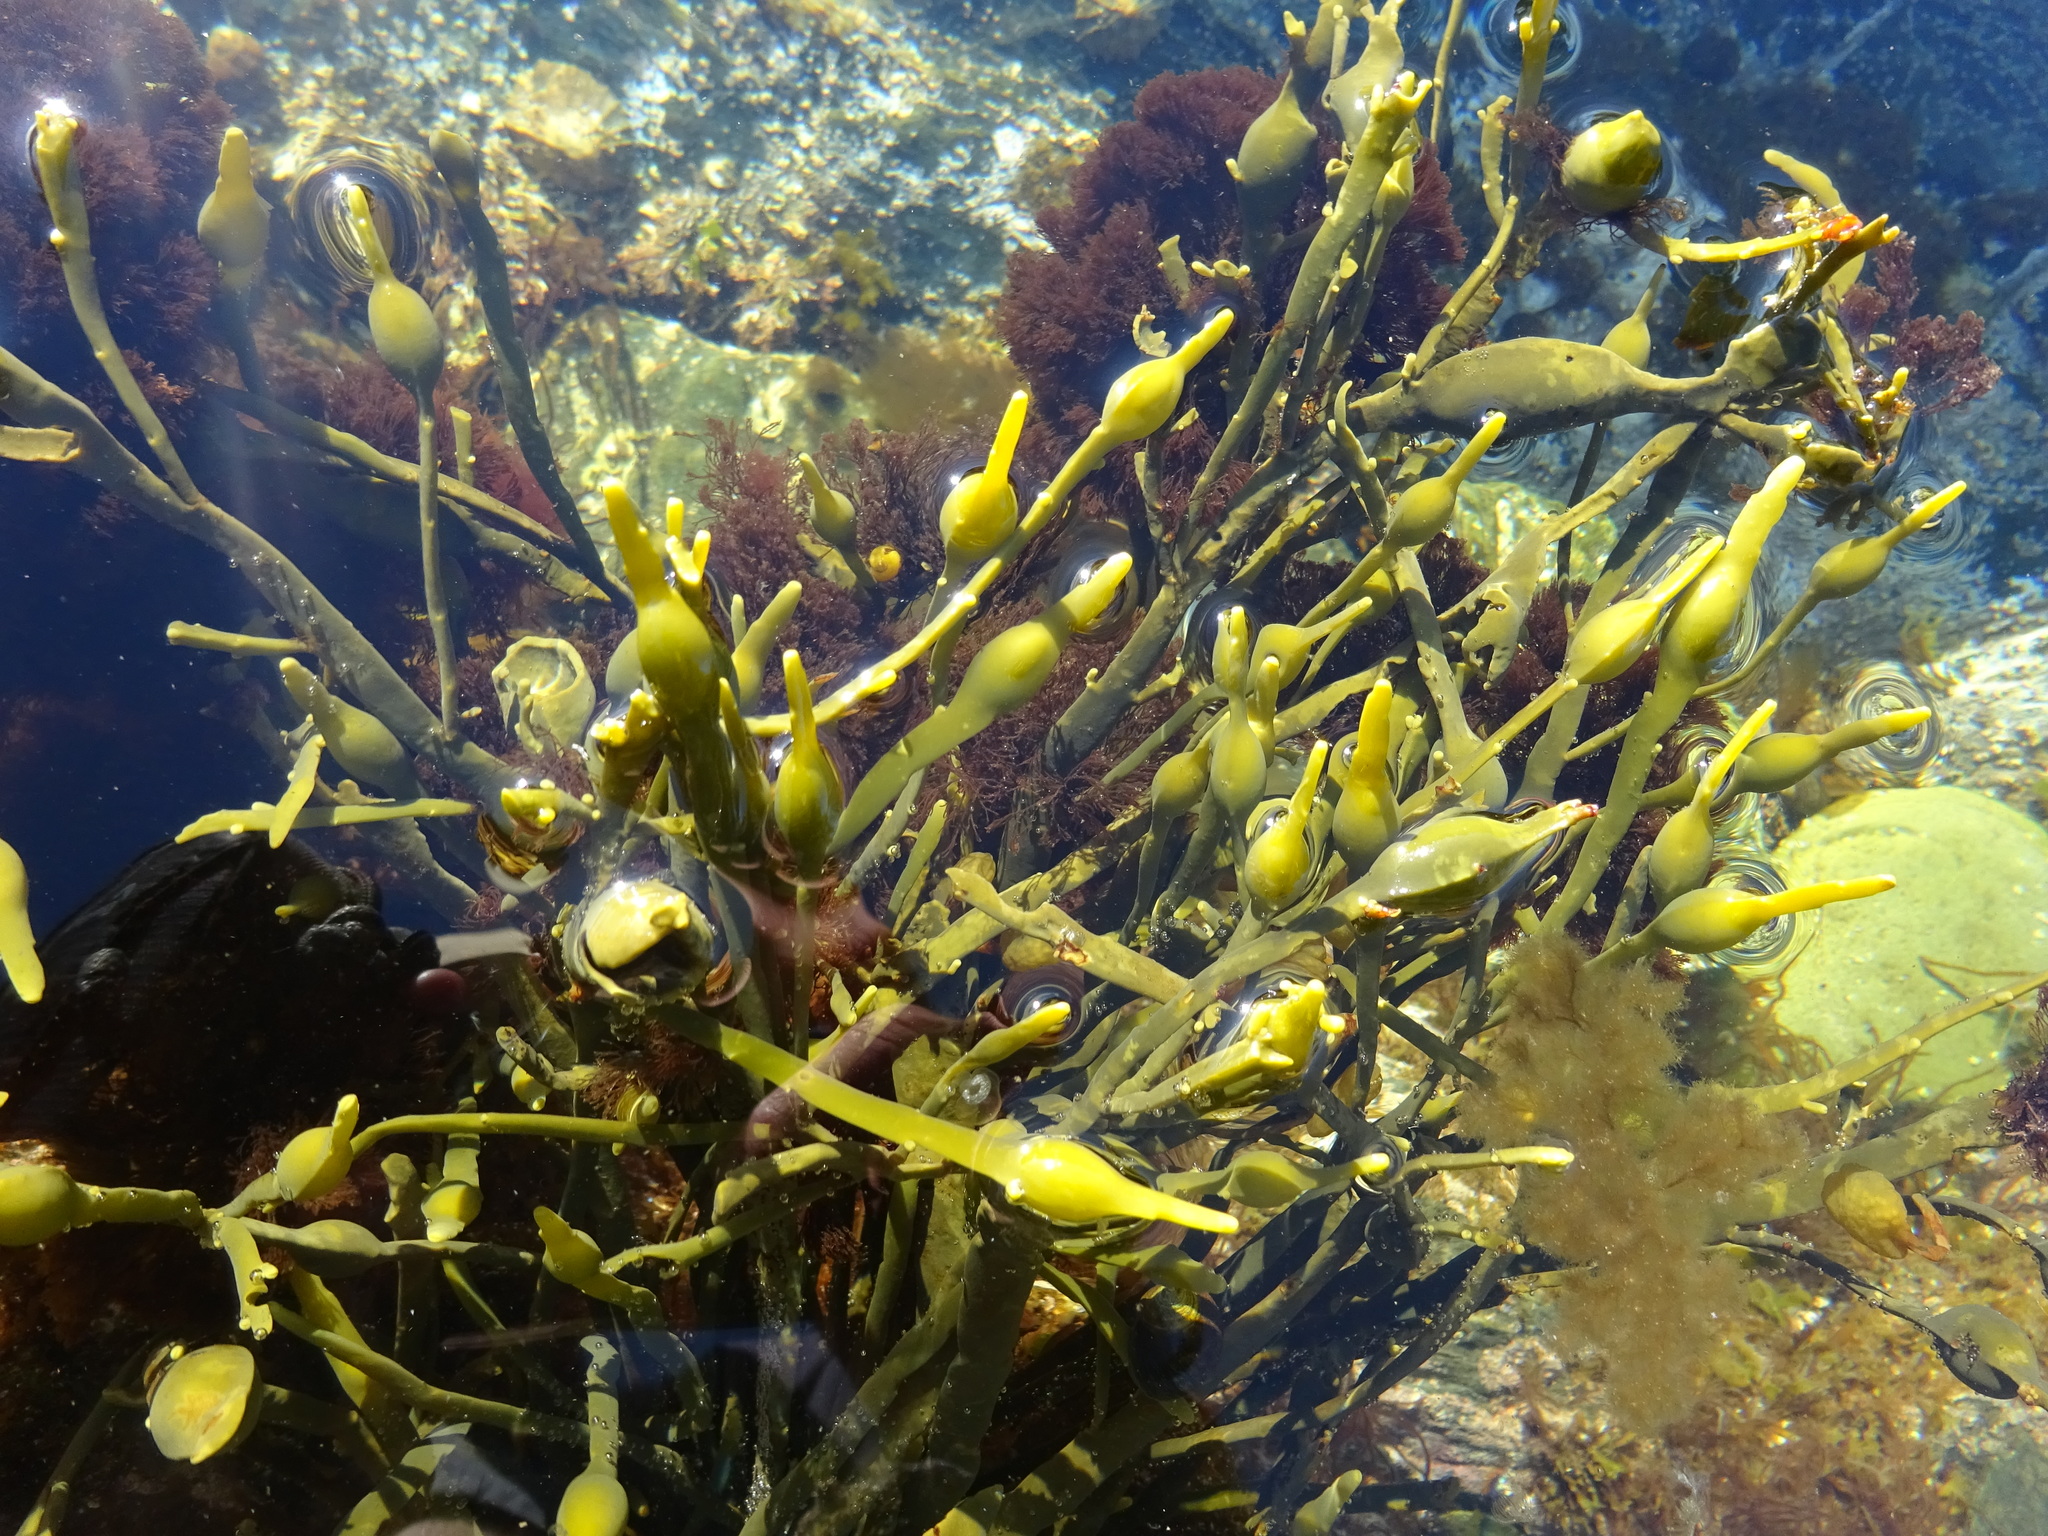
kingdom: Chromista
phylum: Ochrophyta
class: Phaeophyceae
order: Fucales
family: Fucaceae
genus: Ascophyllum
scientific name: Ascophyllum nodosum
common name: Knotted wrack
